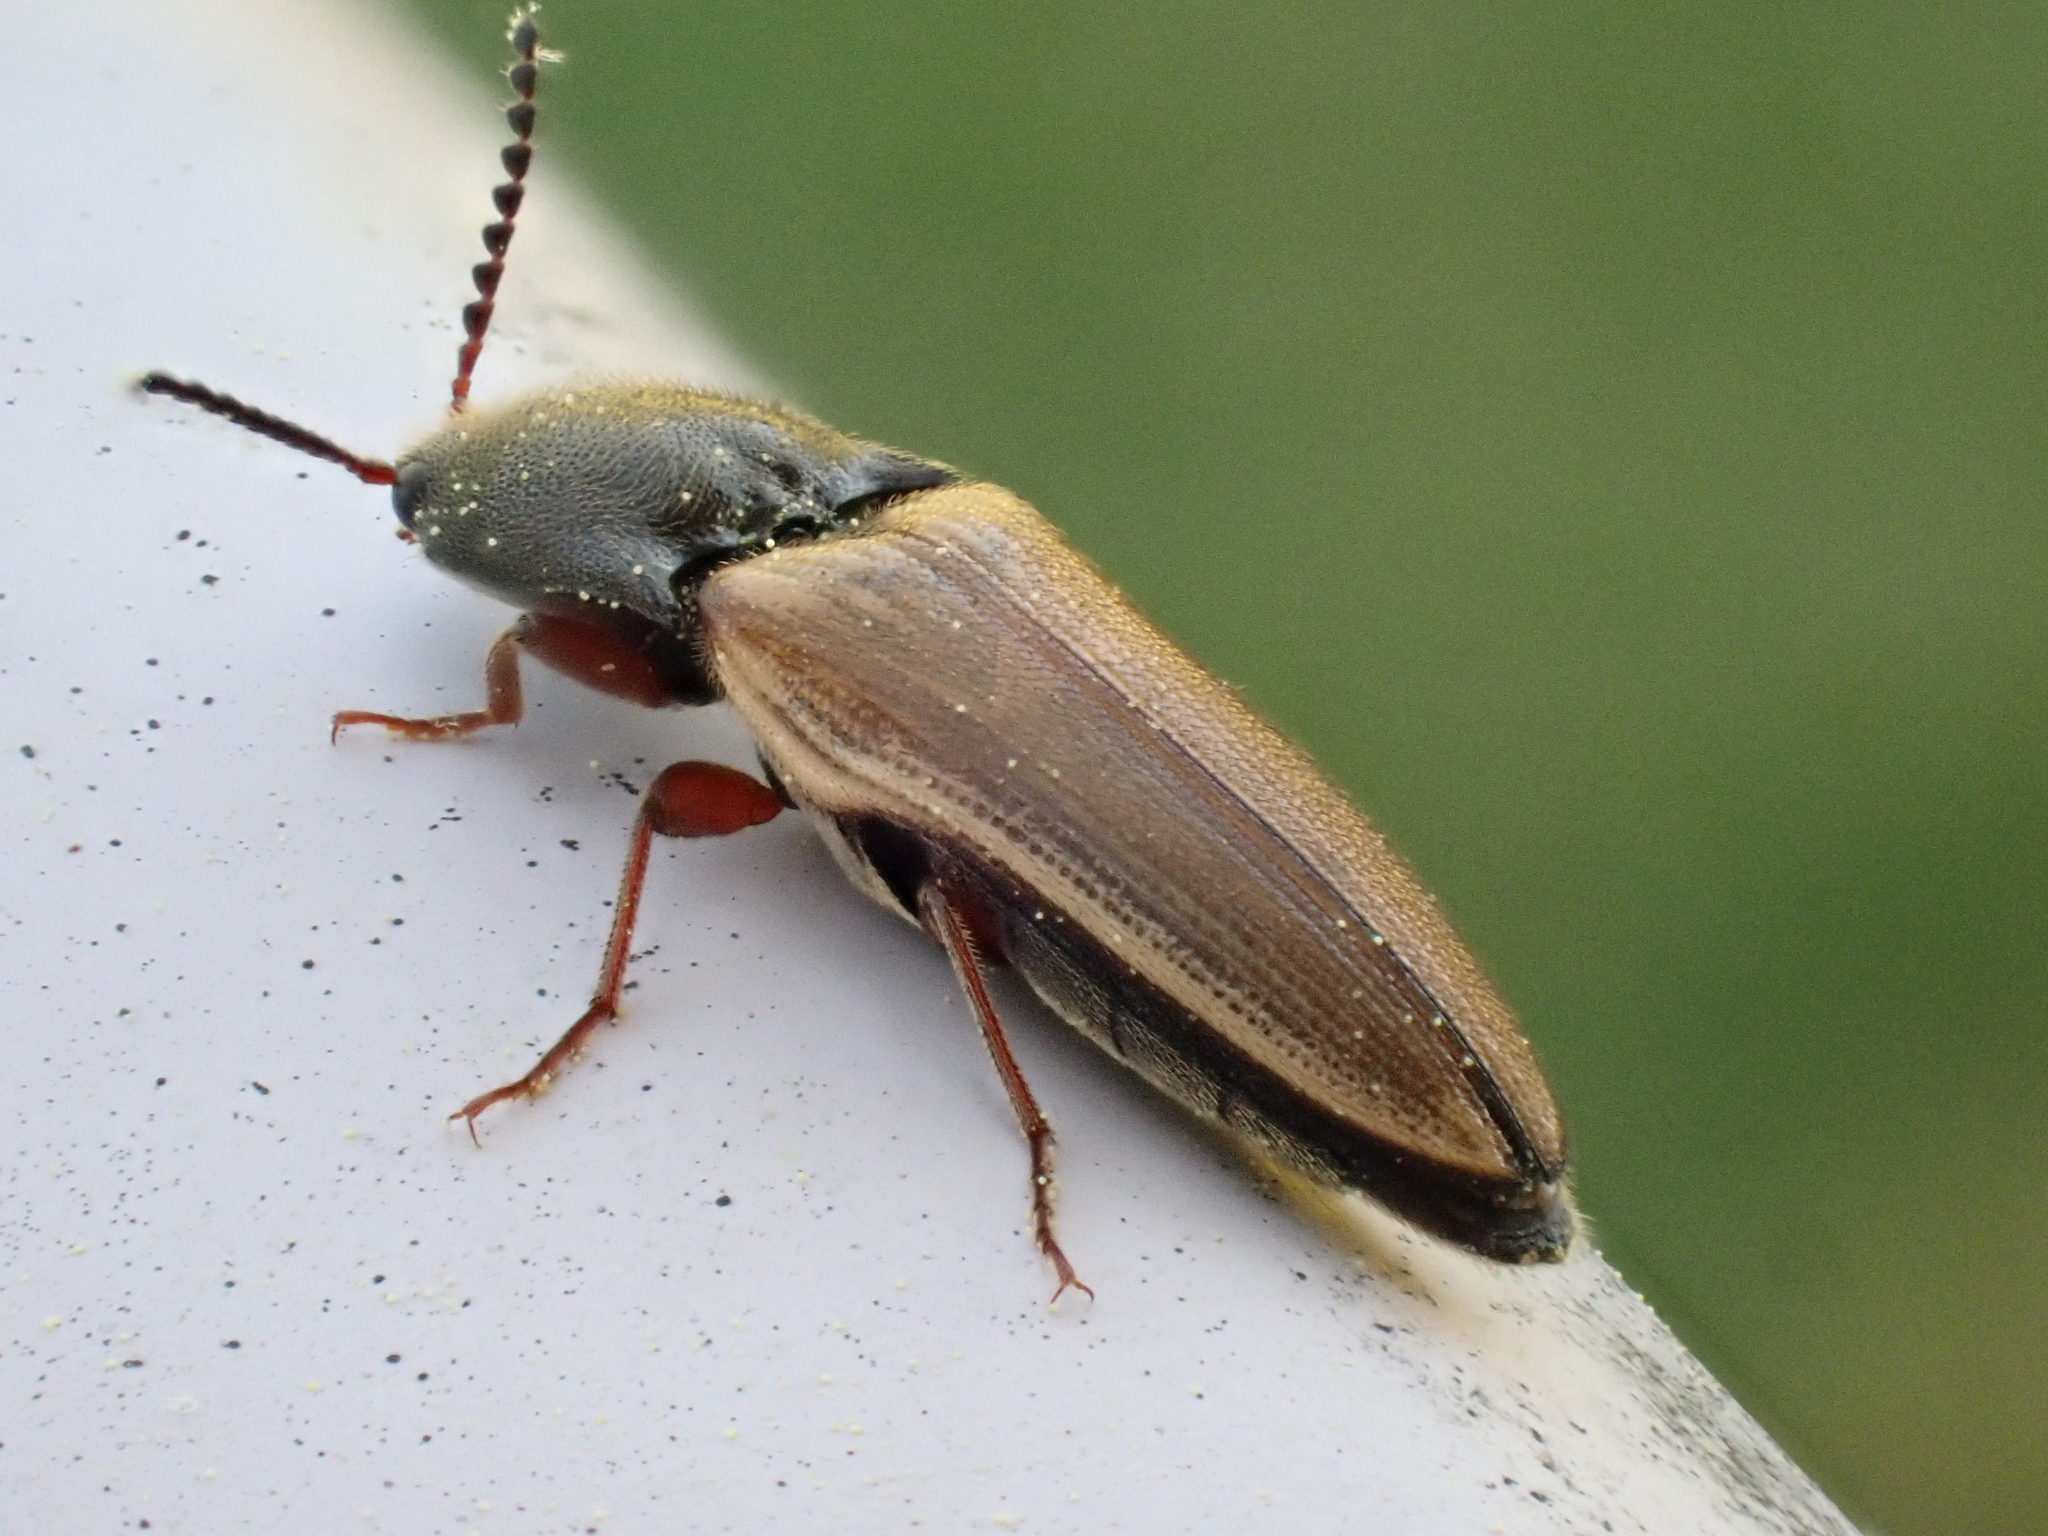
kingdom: Animalia
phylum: Arthropoda
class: Insecta
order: Coleoptera
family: Elateridae
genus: Ampedus
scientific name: Ampedus nigricollis
